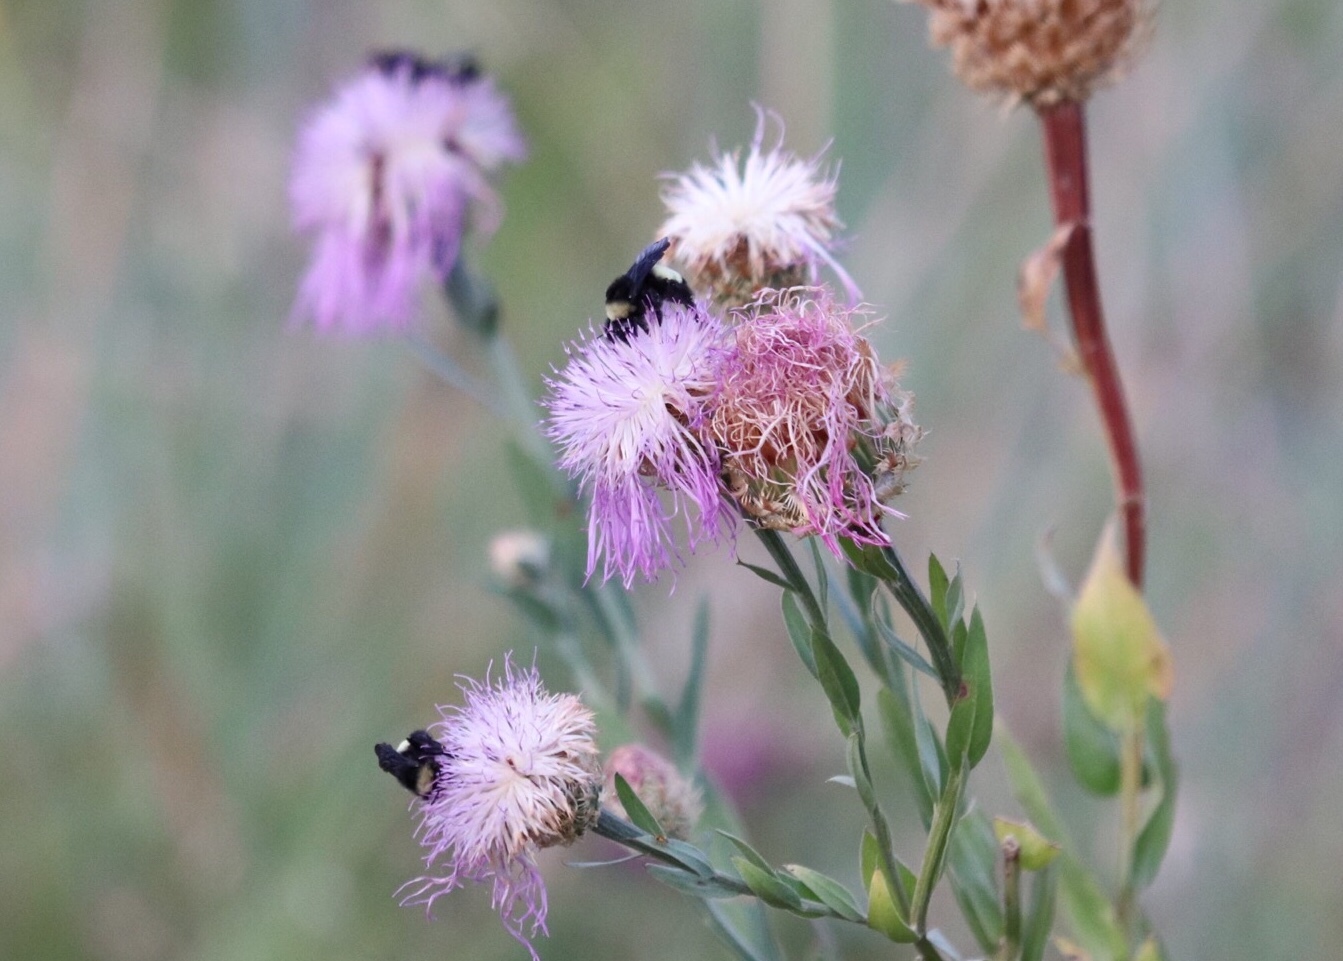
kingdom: Animalia
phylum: Arthropoda
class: Insecta
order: Hymenoptera
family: Apidae
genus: Bombus
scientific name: Bombus pensylvanicus
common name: Bumble bee
